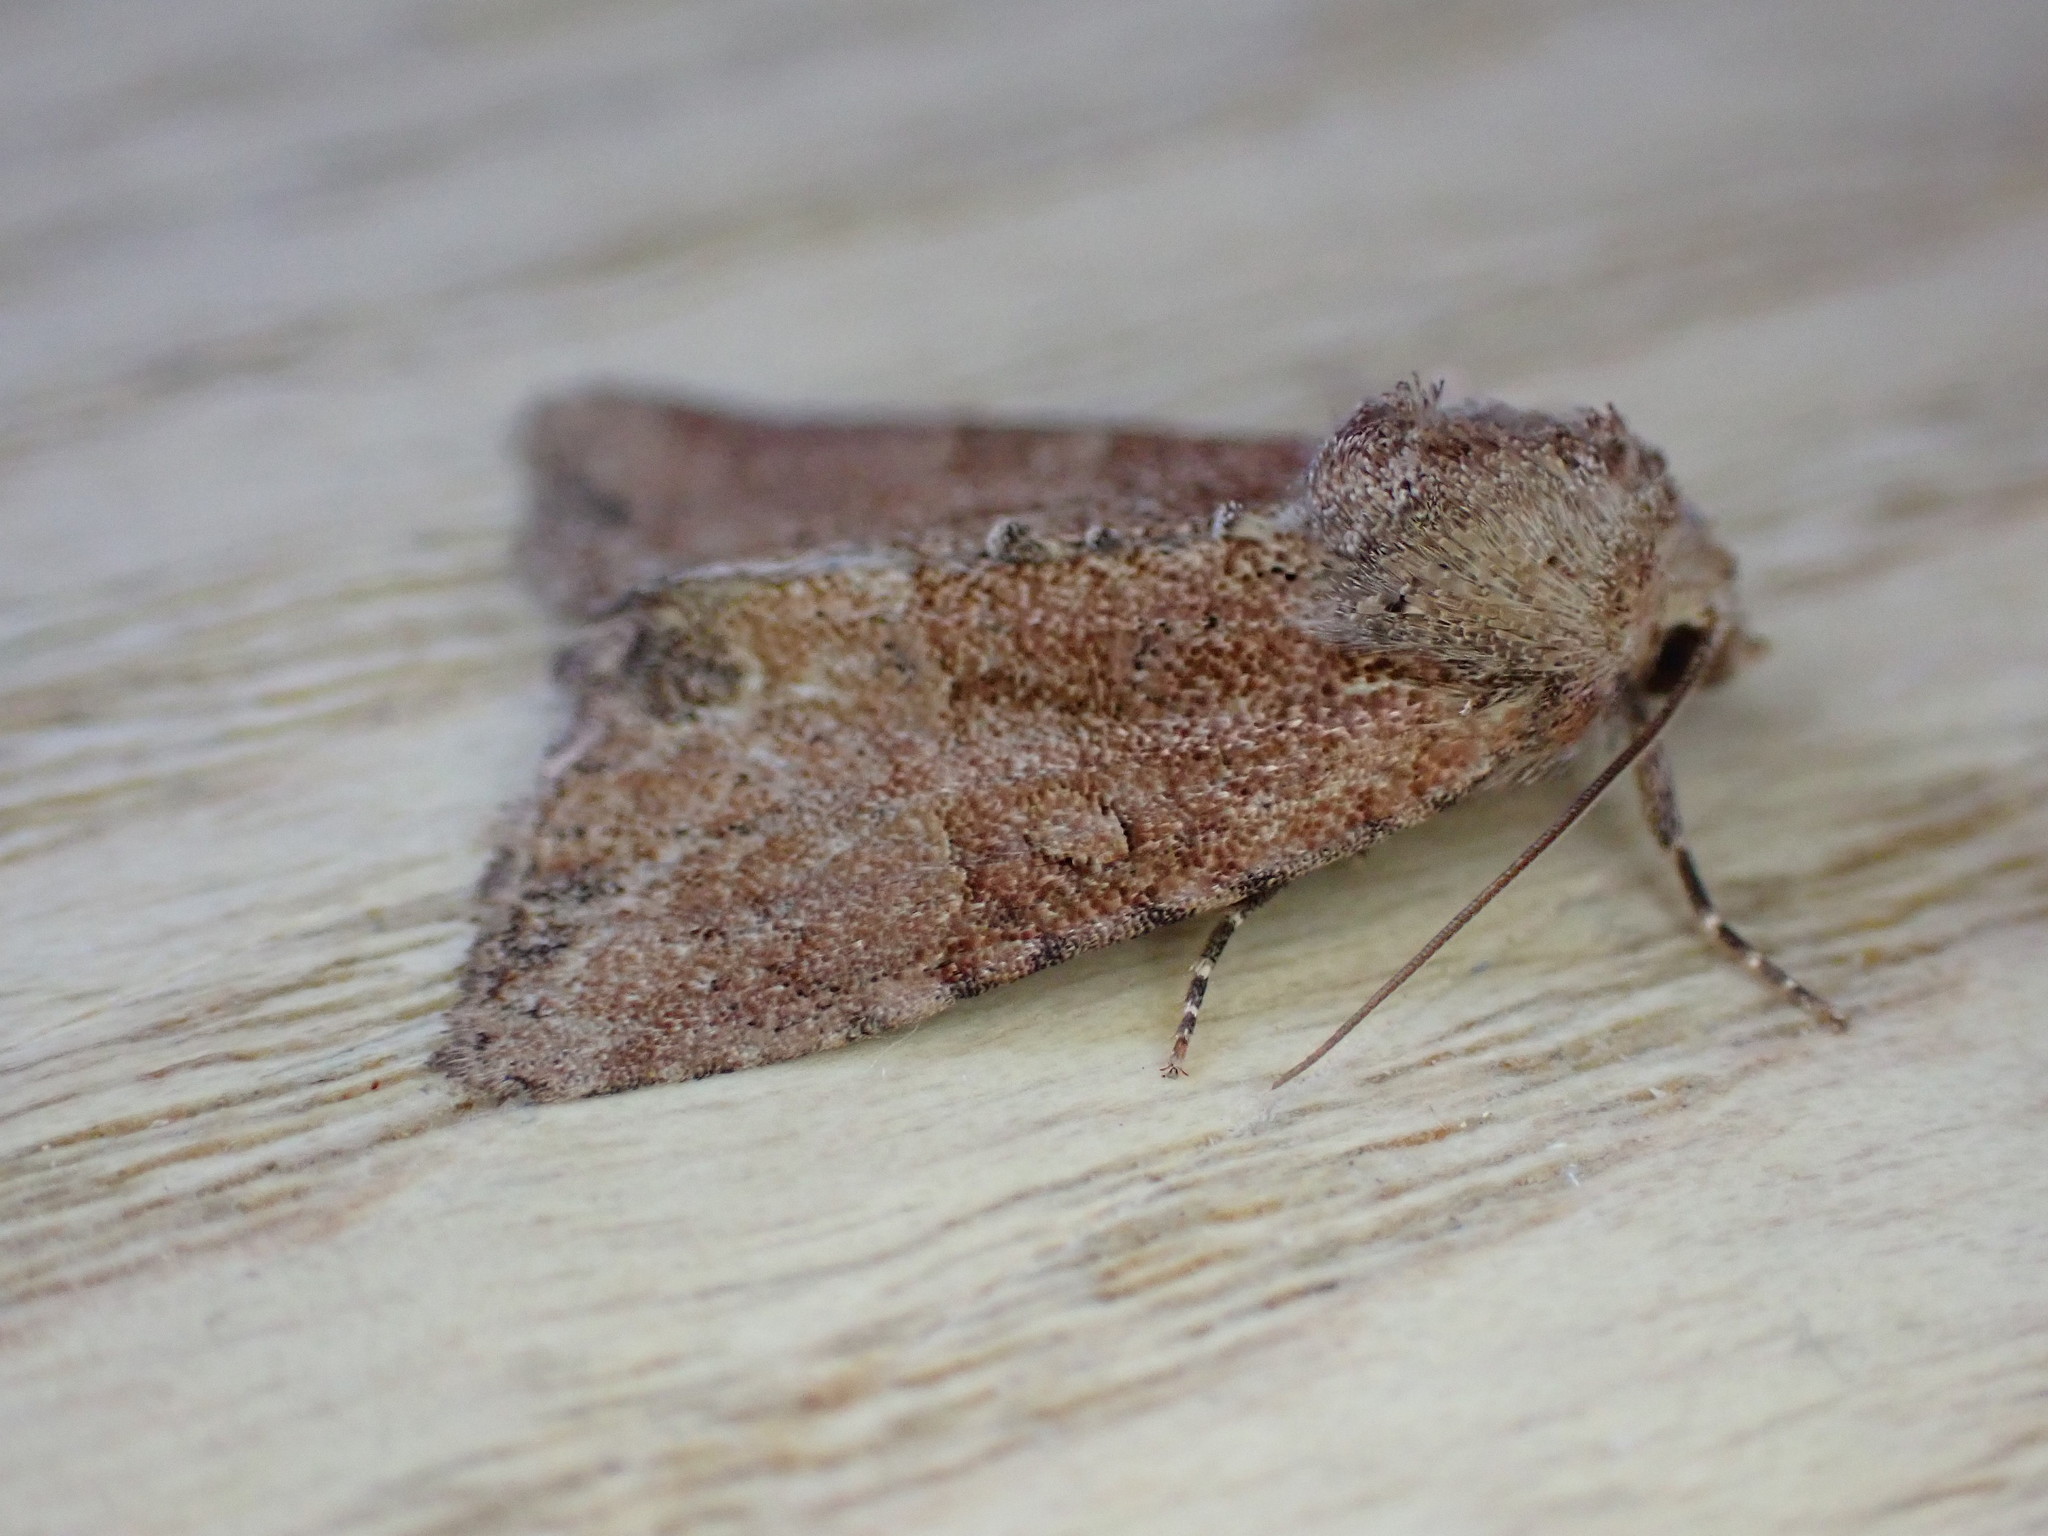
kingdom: Animalia
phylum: Arthropoda
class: Insecta
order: Lepidoptera
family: Noctuidae
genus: Mesoligia
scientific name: Mesoligia furuncula
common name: Cloaked minor
